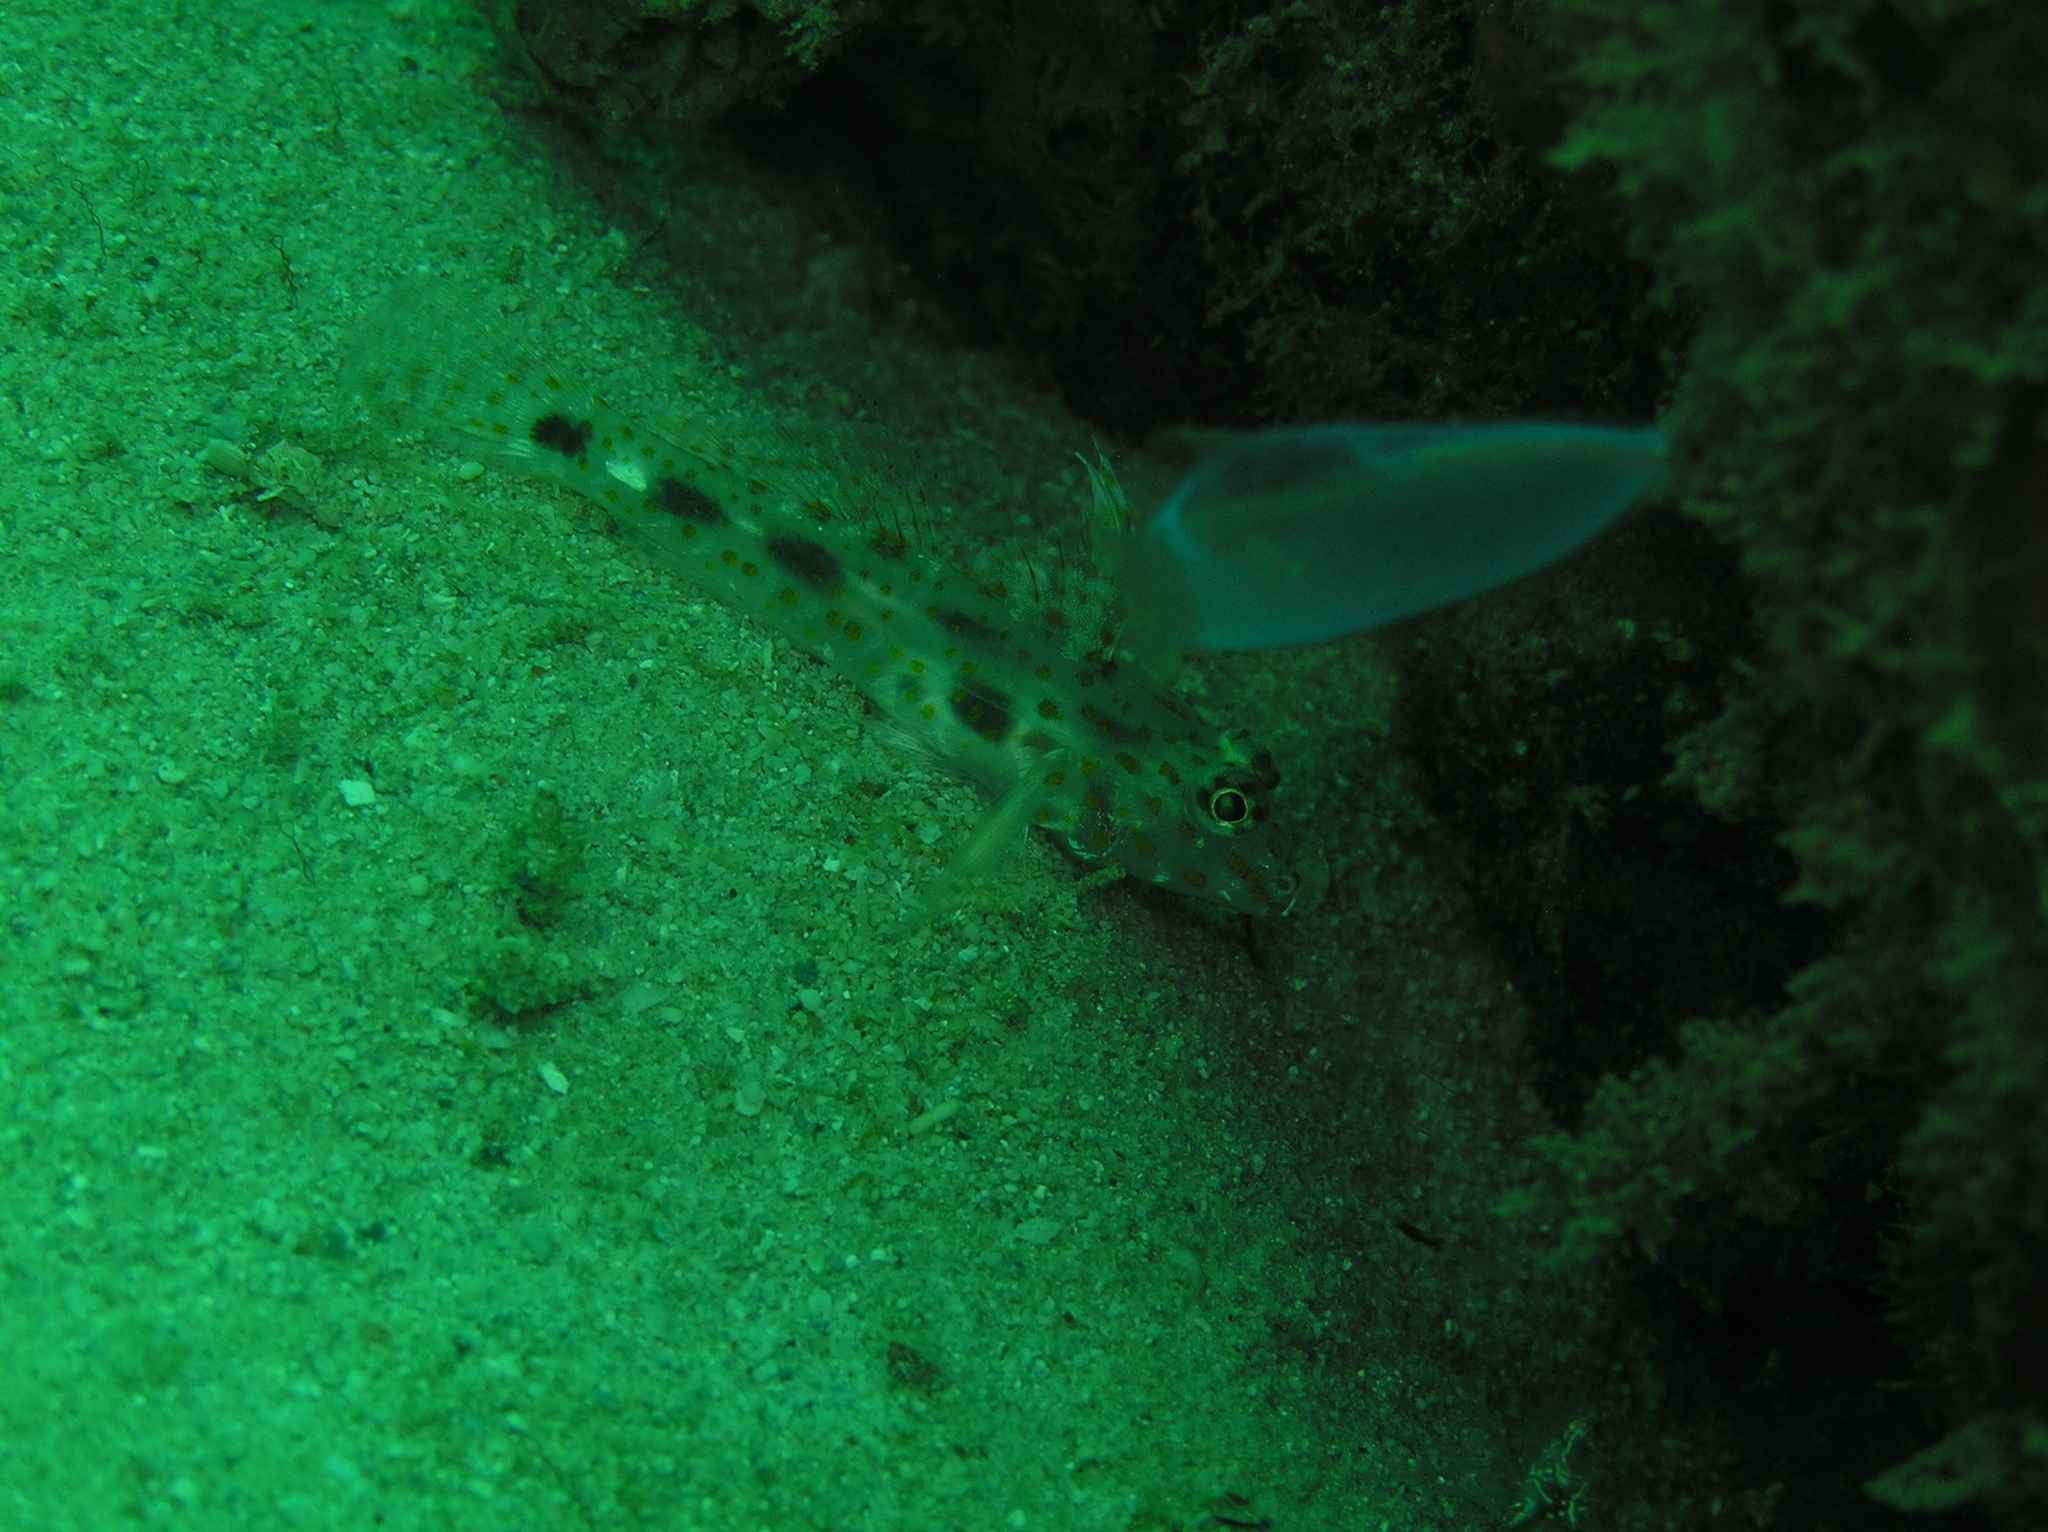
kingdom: Animalia
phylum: Chordata
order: Perciformes
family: Gobiidae
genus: Fusigobius
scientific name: Fusigobius inframaculatus
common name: Blotched goby
